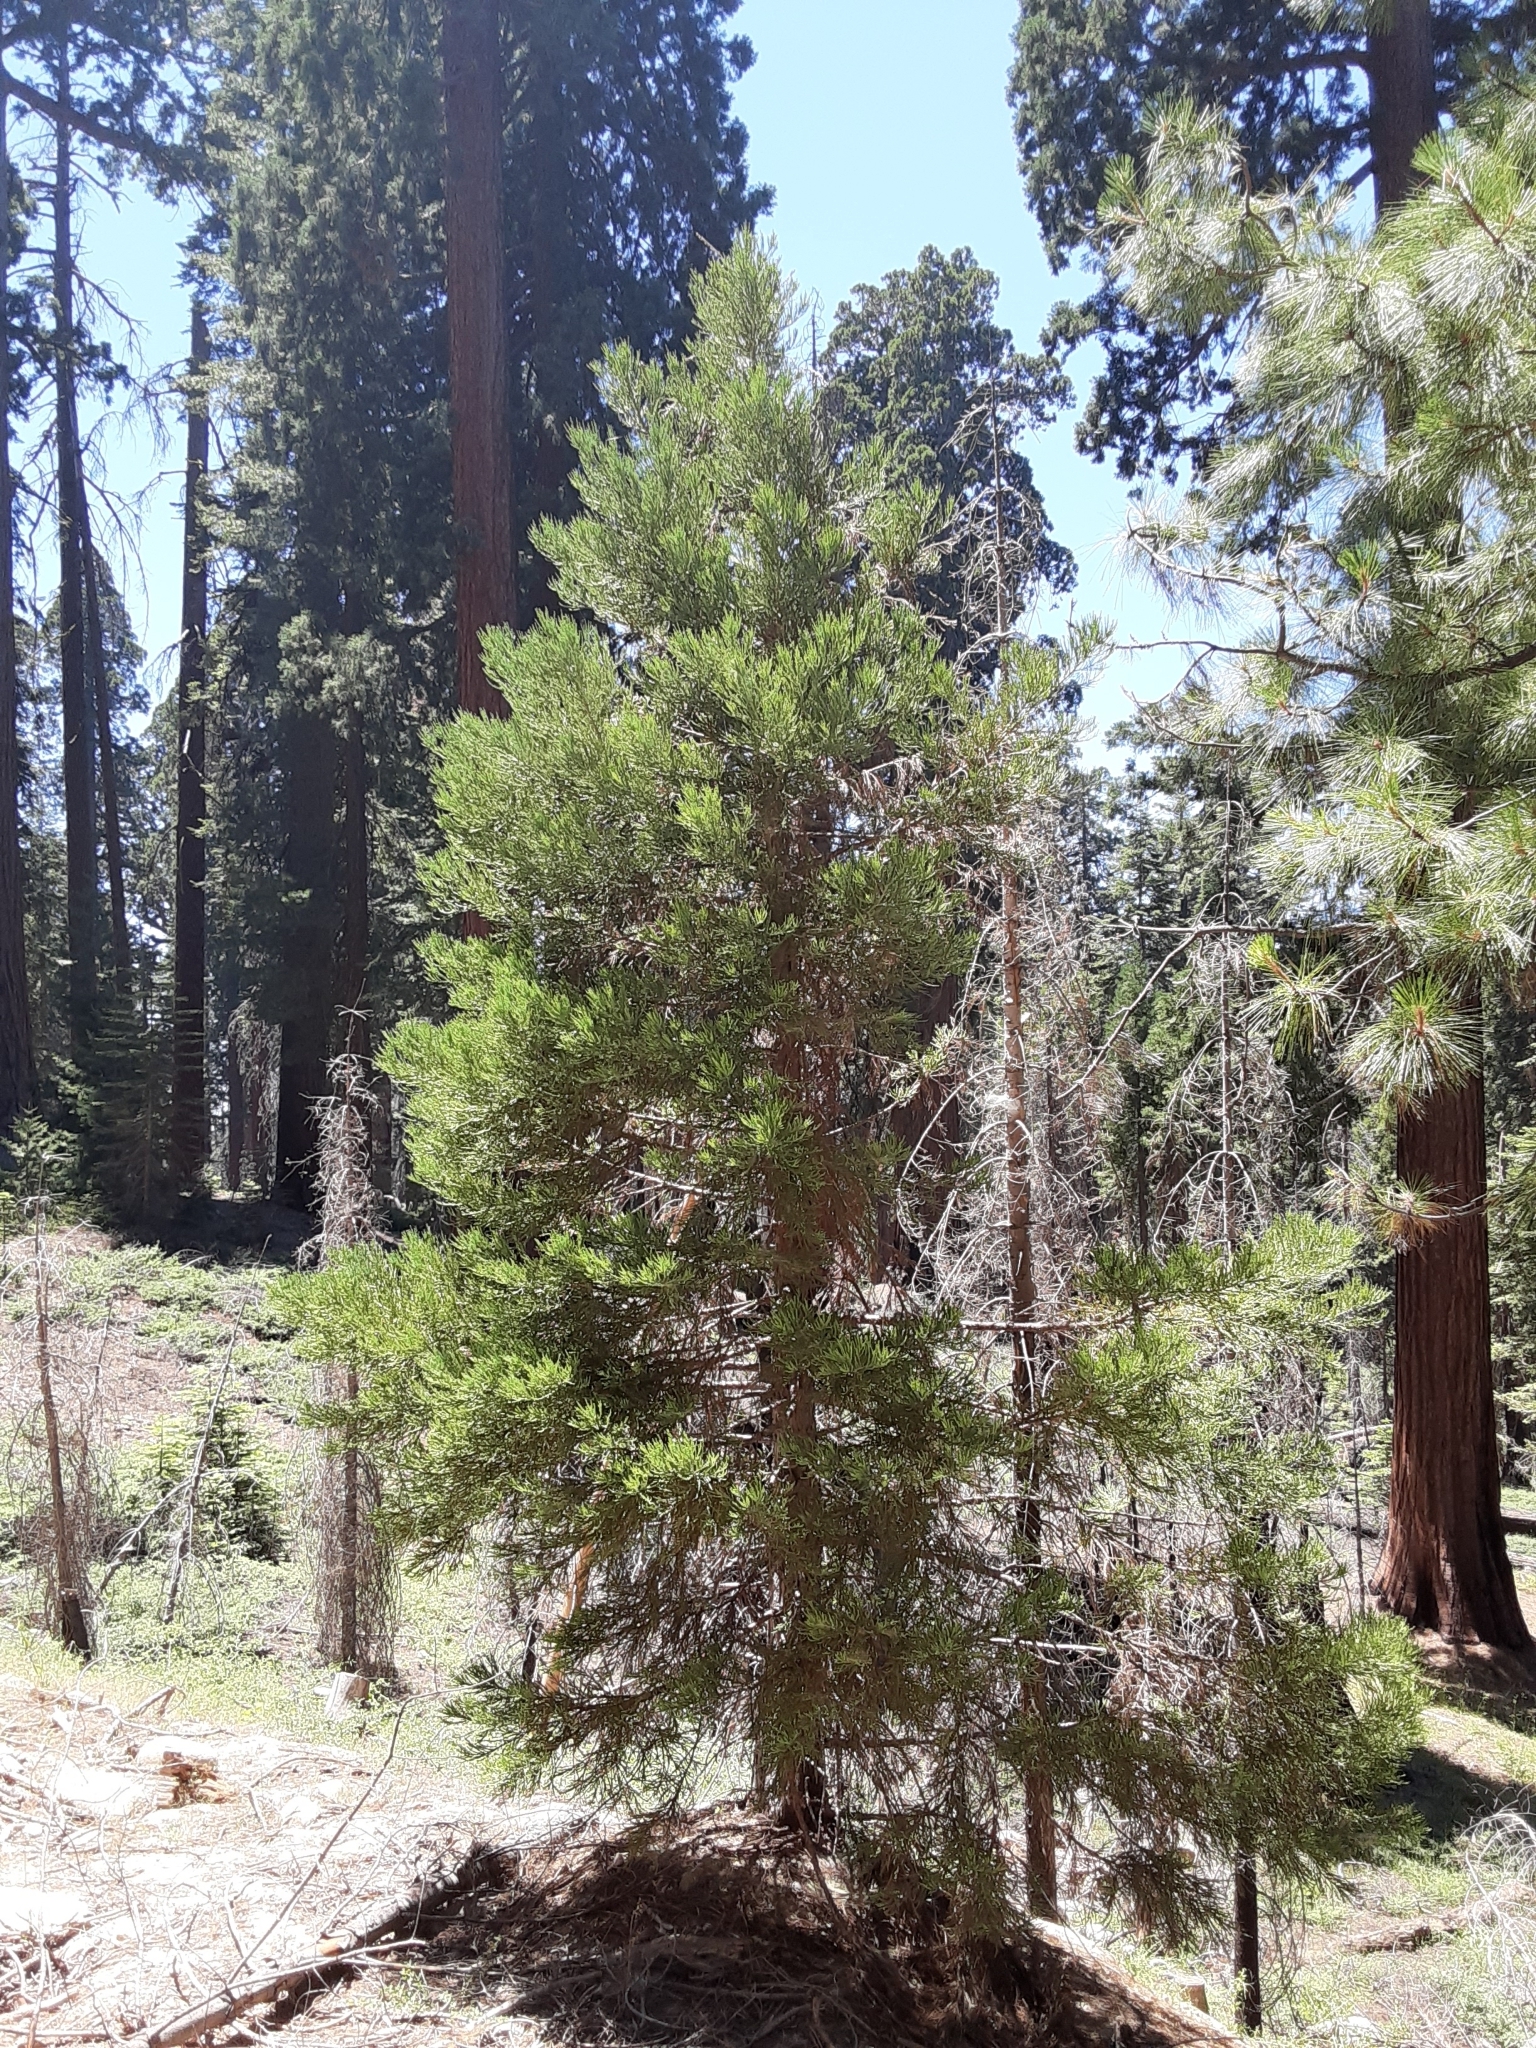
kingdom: Plantae
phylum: Tracheophyta
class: Pinopsida
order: Pinales
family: Cupressaceae
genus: Sequoiadendron
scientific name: Sequoiadendron giganteum
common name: Wellingtonia
